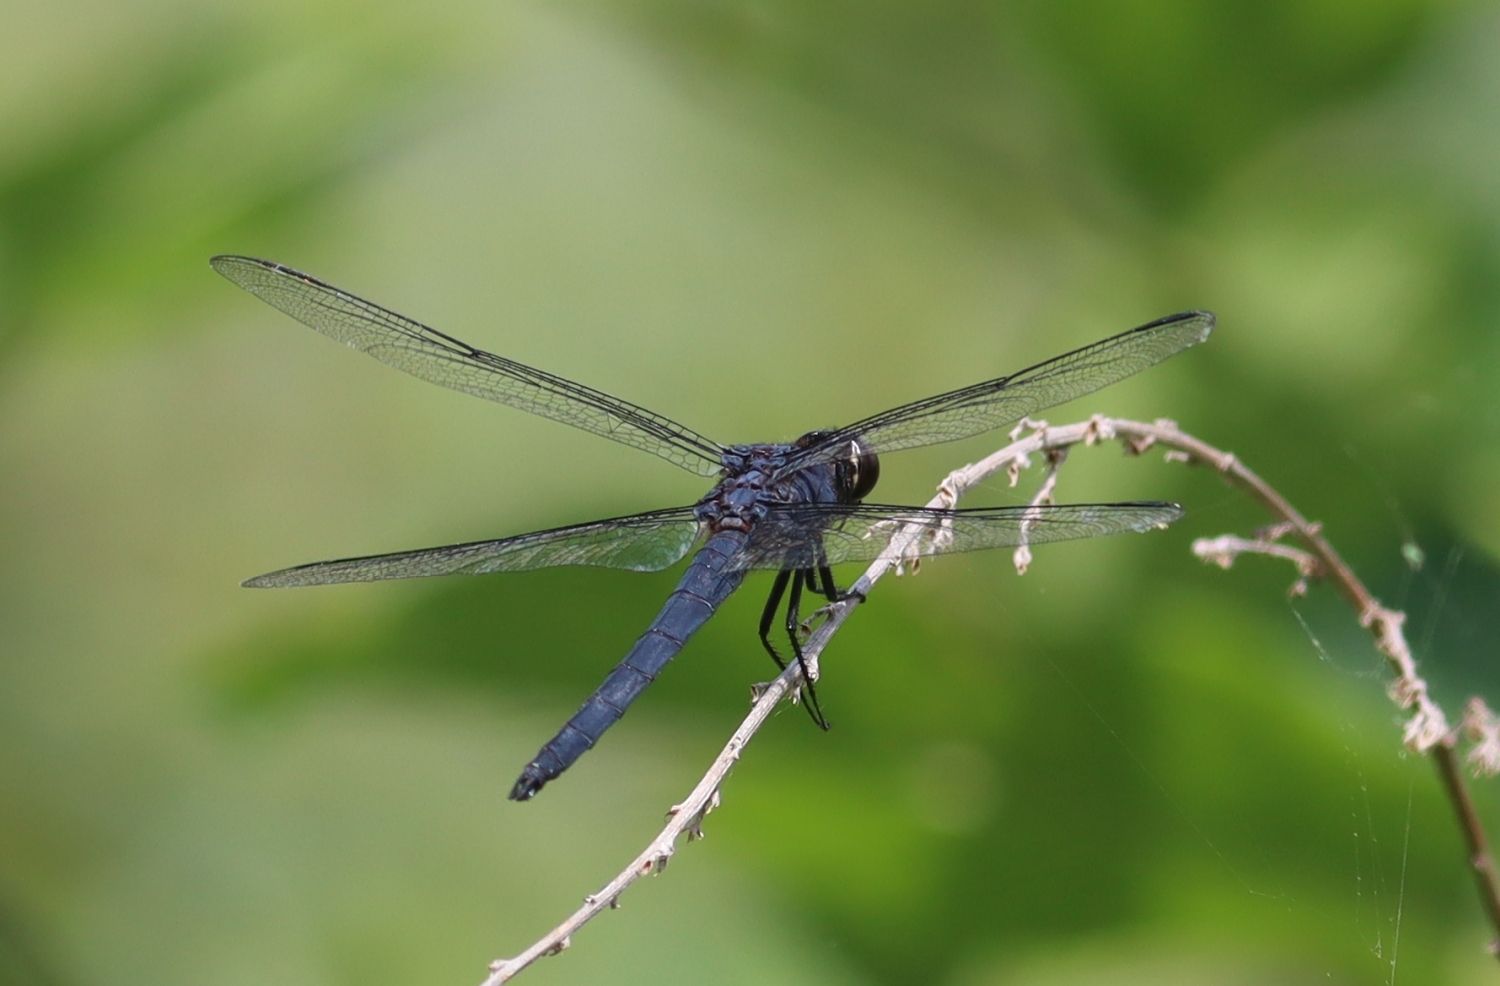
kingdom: Animalia
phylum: Arthropoda
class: Insecta
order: Odonata
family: Libellulidae
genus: Libellula
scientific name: Libellula incesta
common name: Slaty skimmer
